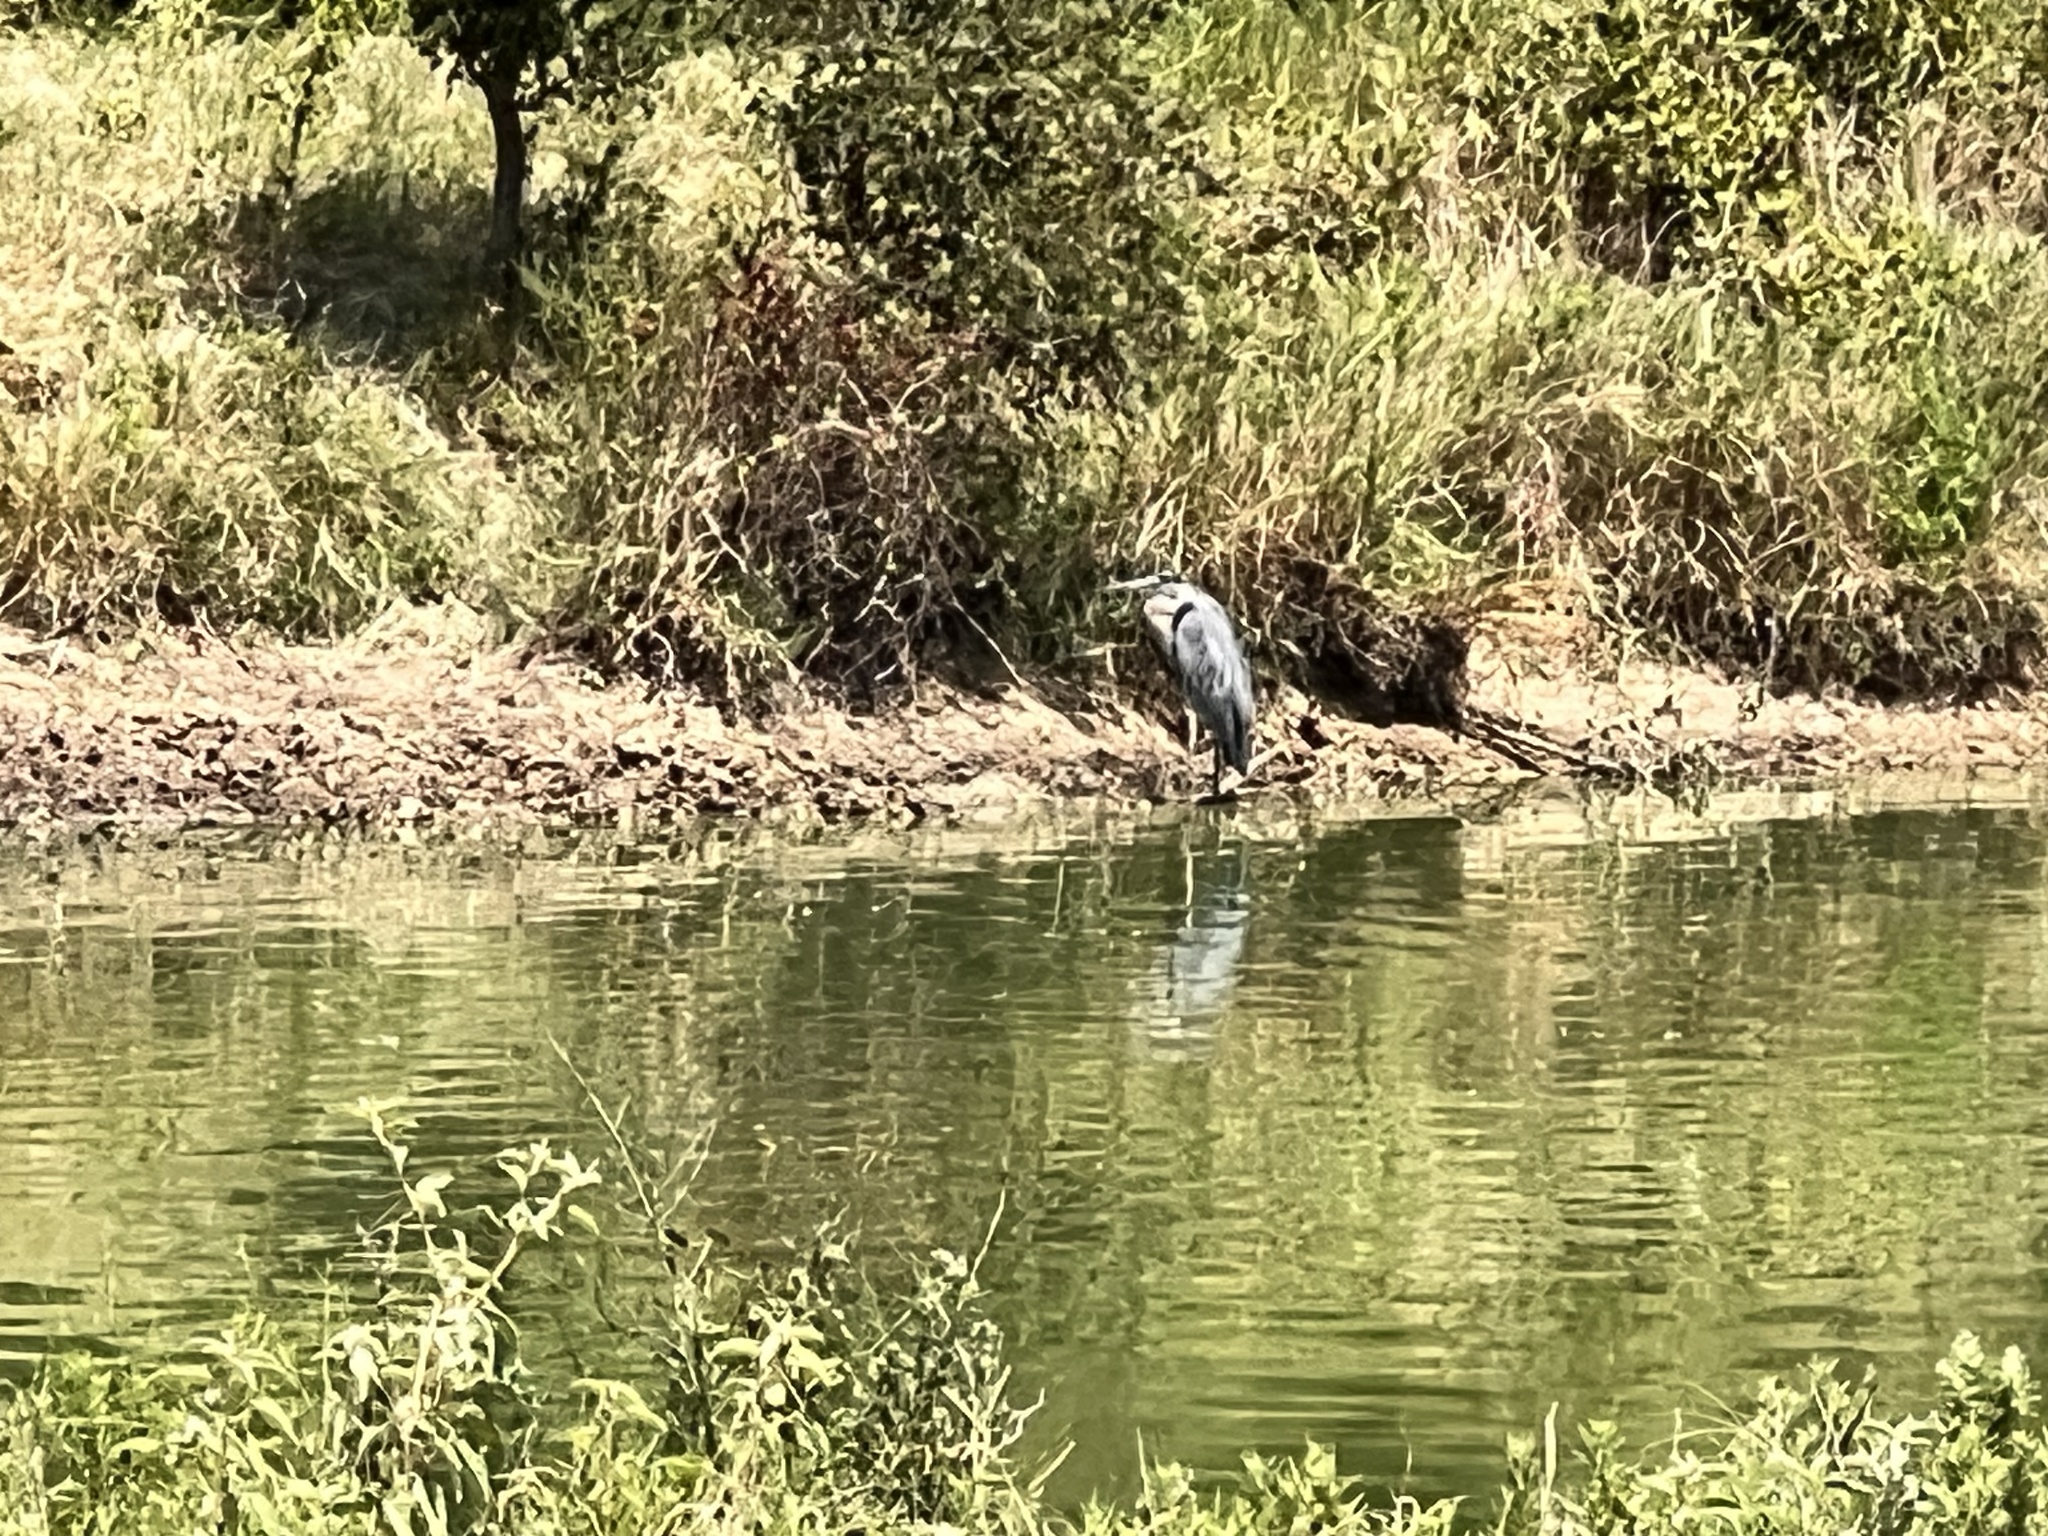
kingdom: Animalia
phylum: Chordata
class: Aves
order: Pelecaniformes
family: Ardeidae
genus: Ardea
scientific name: Ardea herodias
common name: Great blue heron
